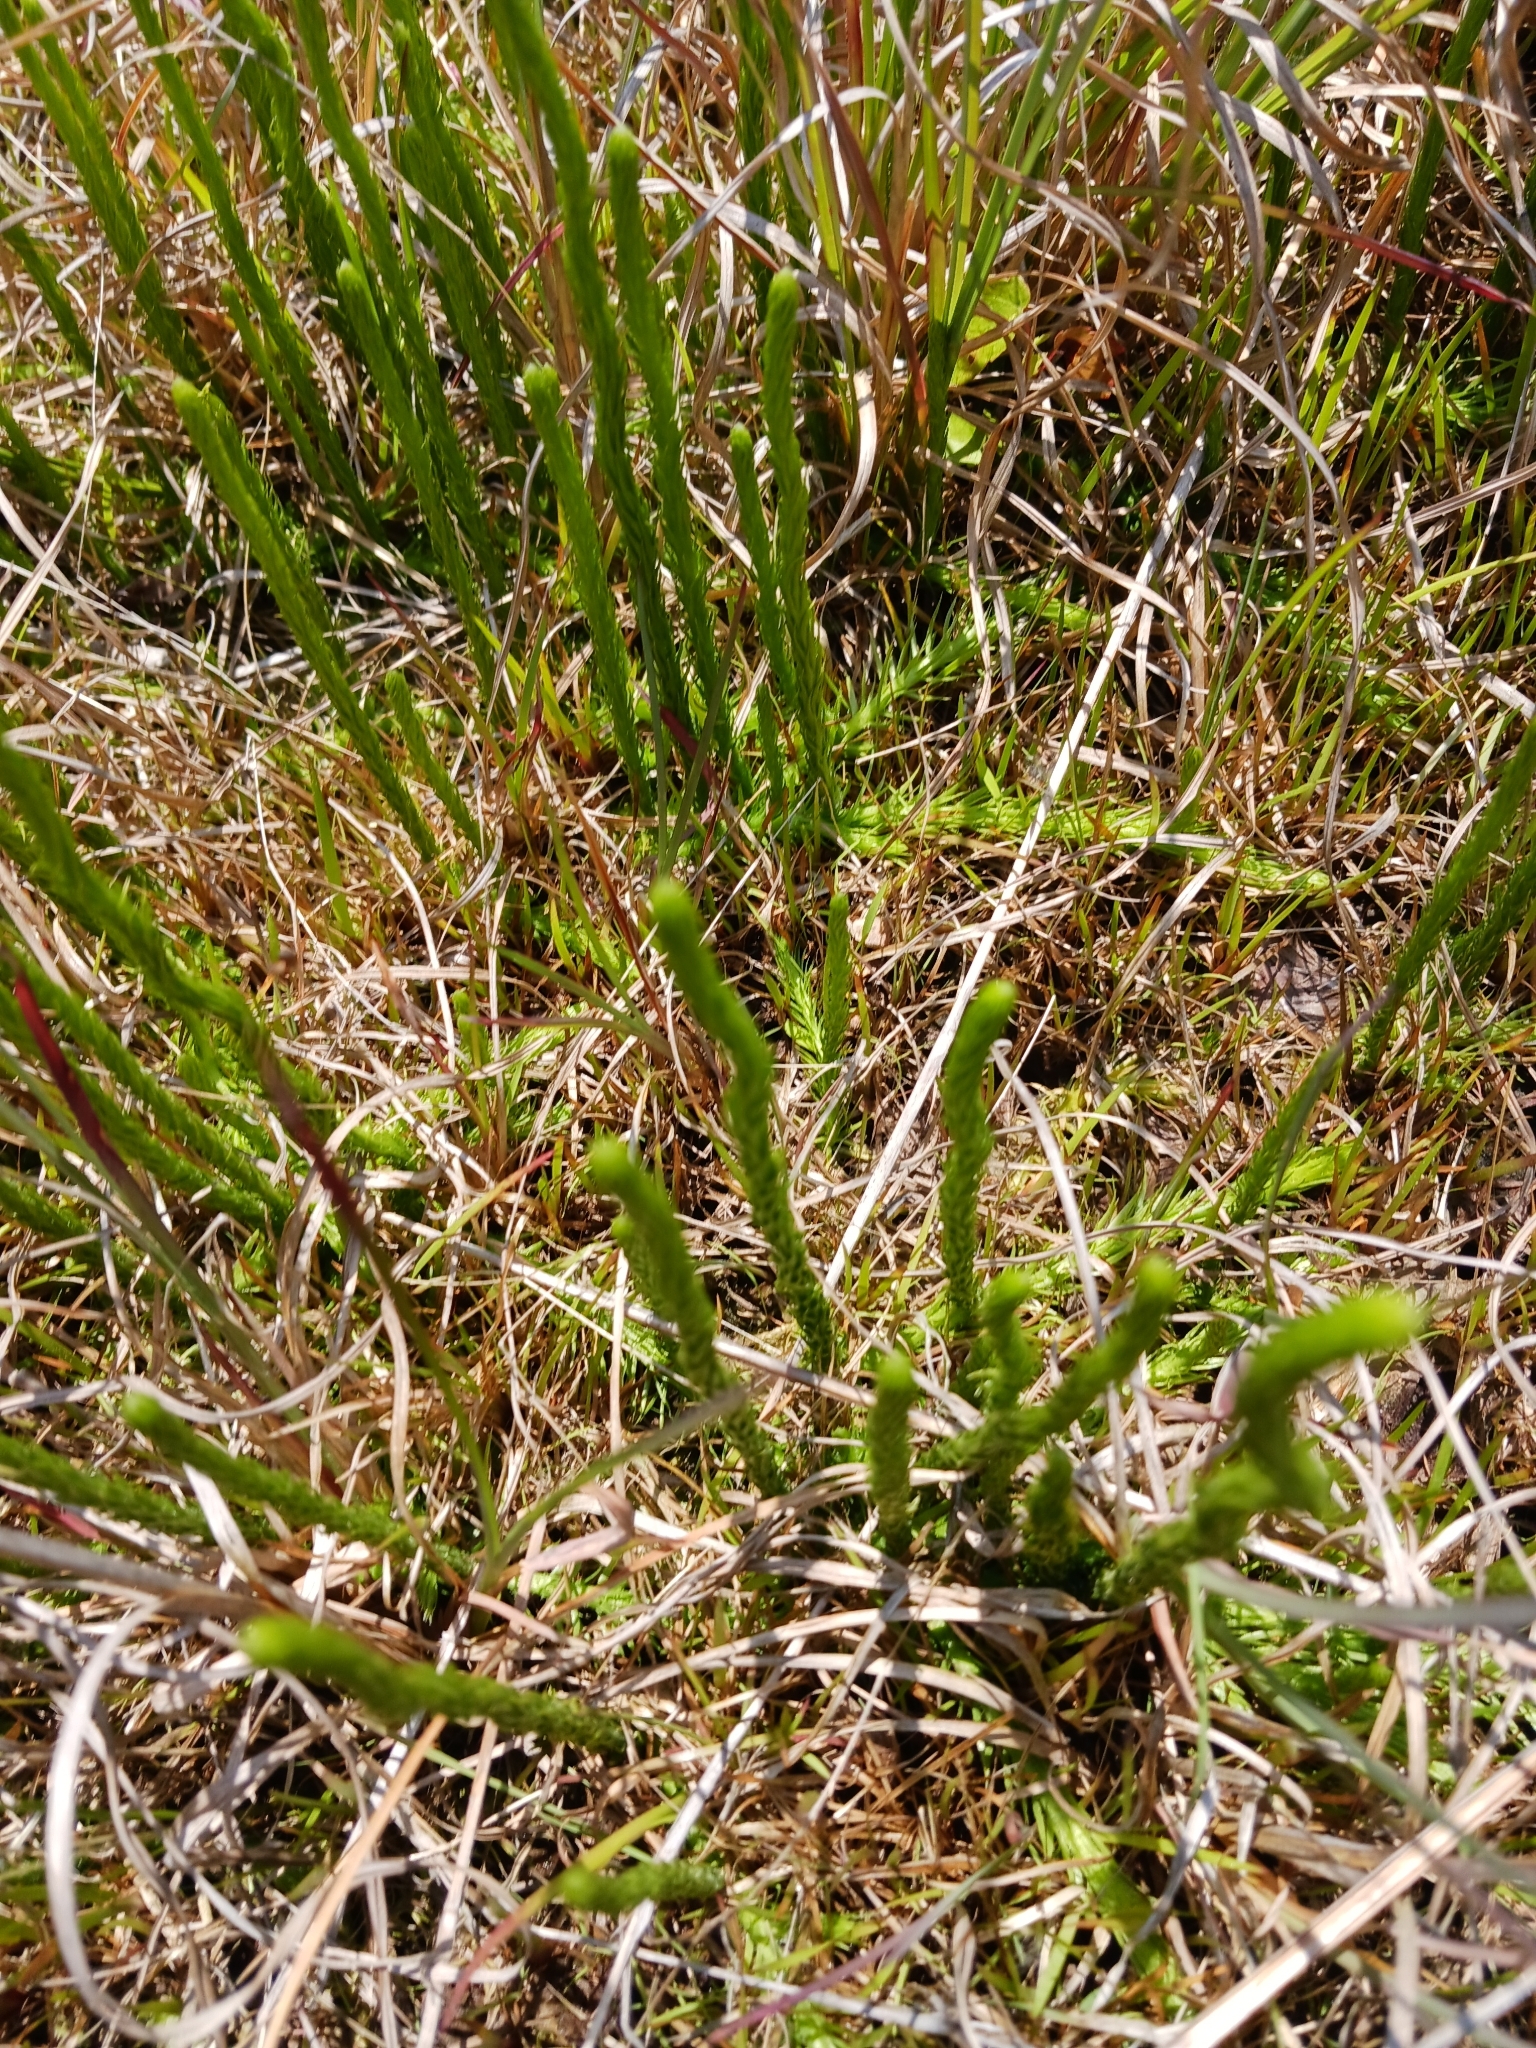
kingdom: Plantae
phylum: Tracheophyta
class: Lycopodiopsida
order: Lycopodiales
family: Lycopodiaceae
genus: Lycopodiella
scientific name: Lycopodiella appressa
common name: Appressed bog clubmoss
